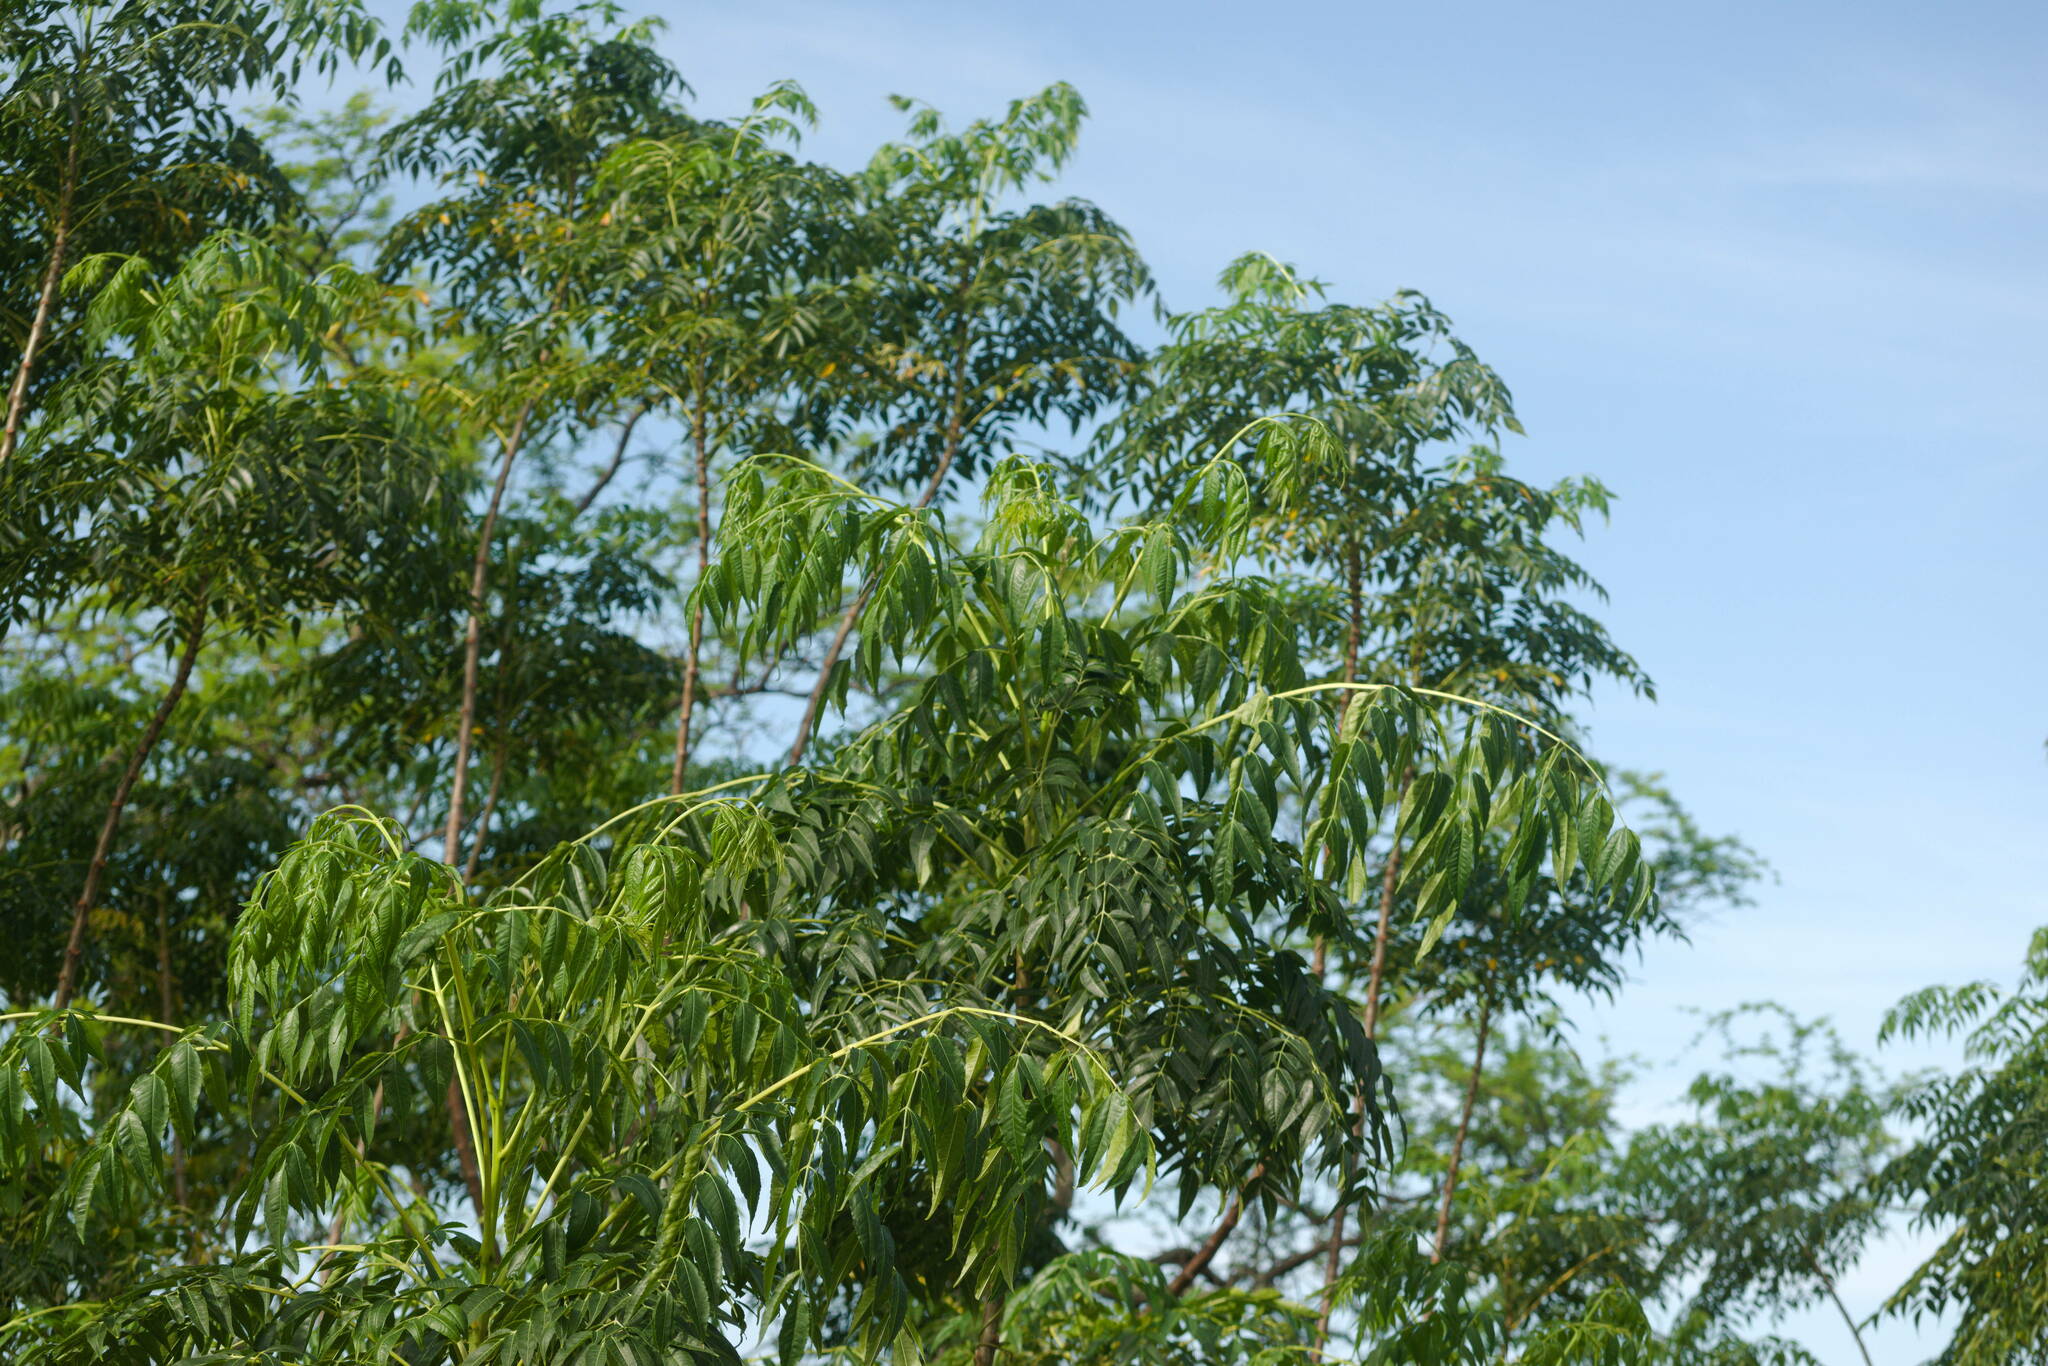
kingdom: Plantae
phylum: Tracheophyta
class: Magnoliopsida
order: Sapindales
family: Meliaceae
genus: Melia
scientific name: Melia azedarach
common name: Chinaberrytree
